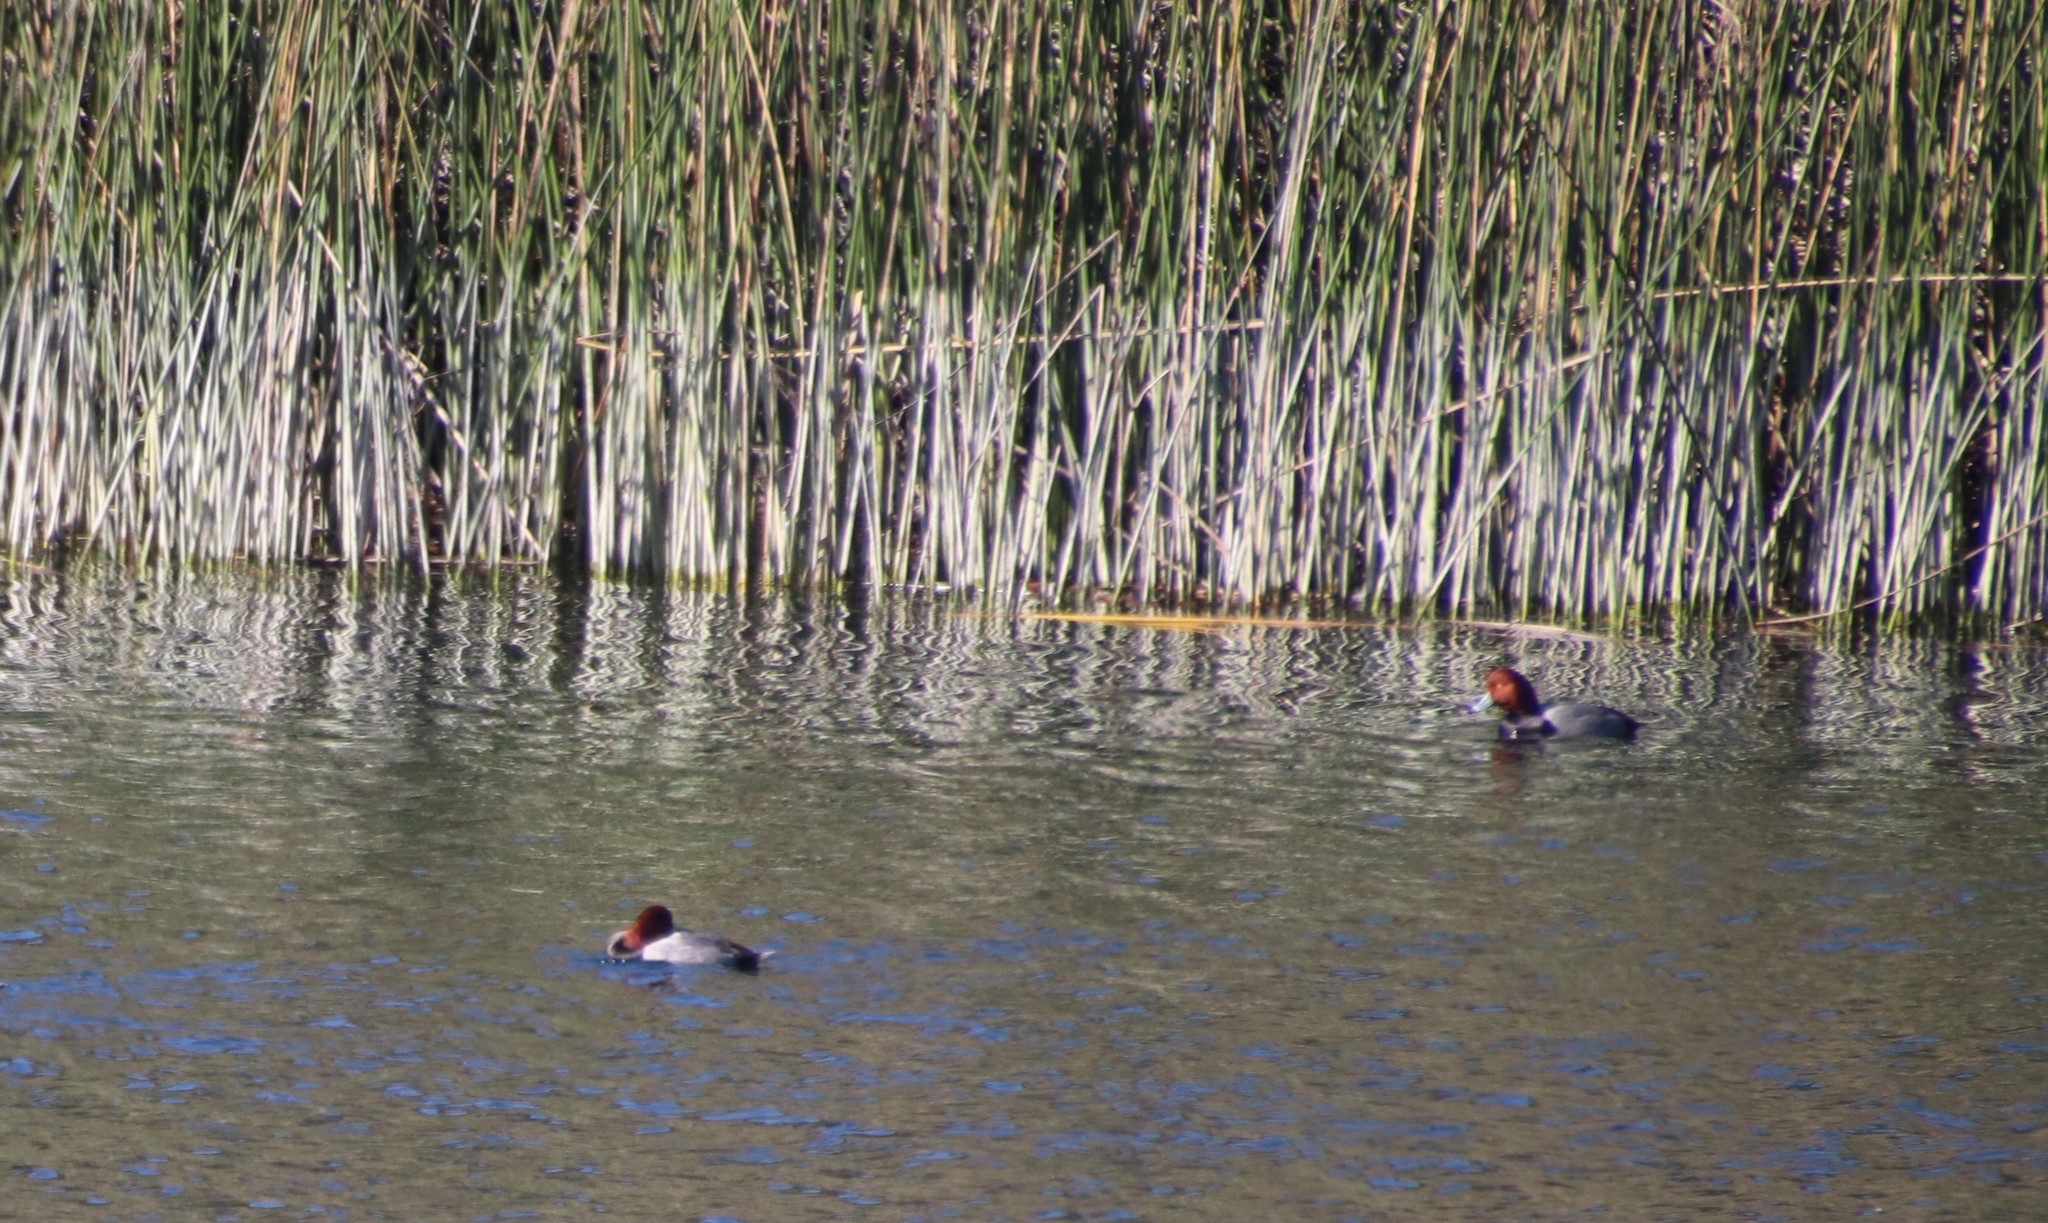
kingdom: Animalia
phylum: Chordata
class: Aves
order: Anseriformes
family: Anatidae
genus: Aythya
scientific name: Aythya americana
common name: Redhead
